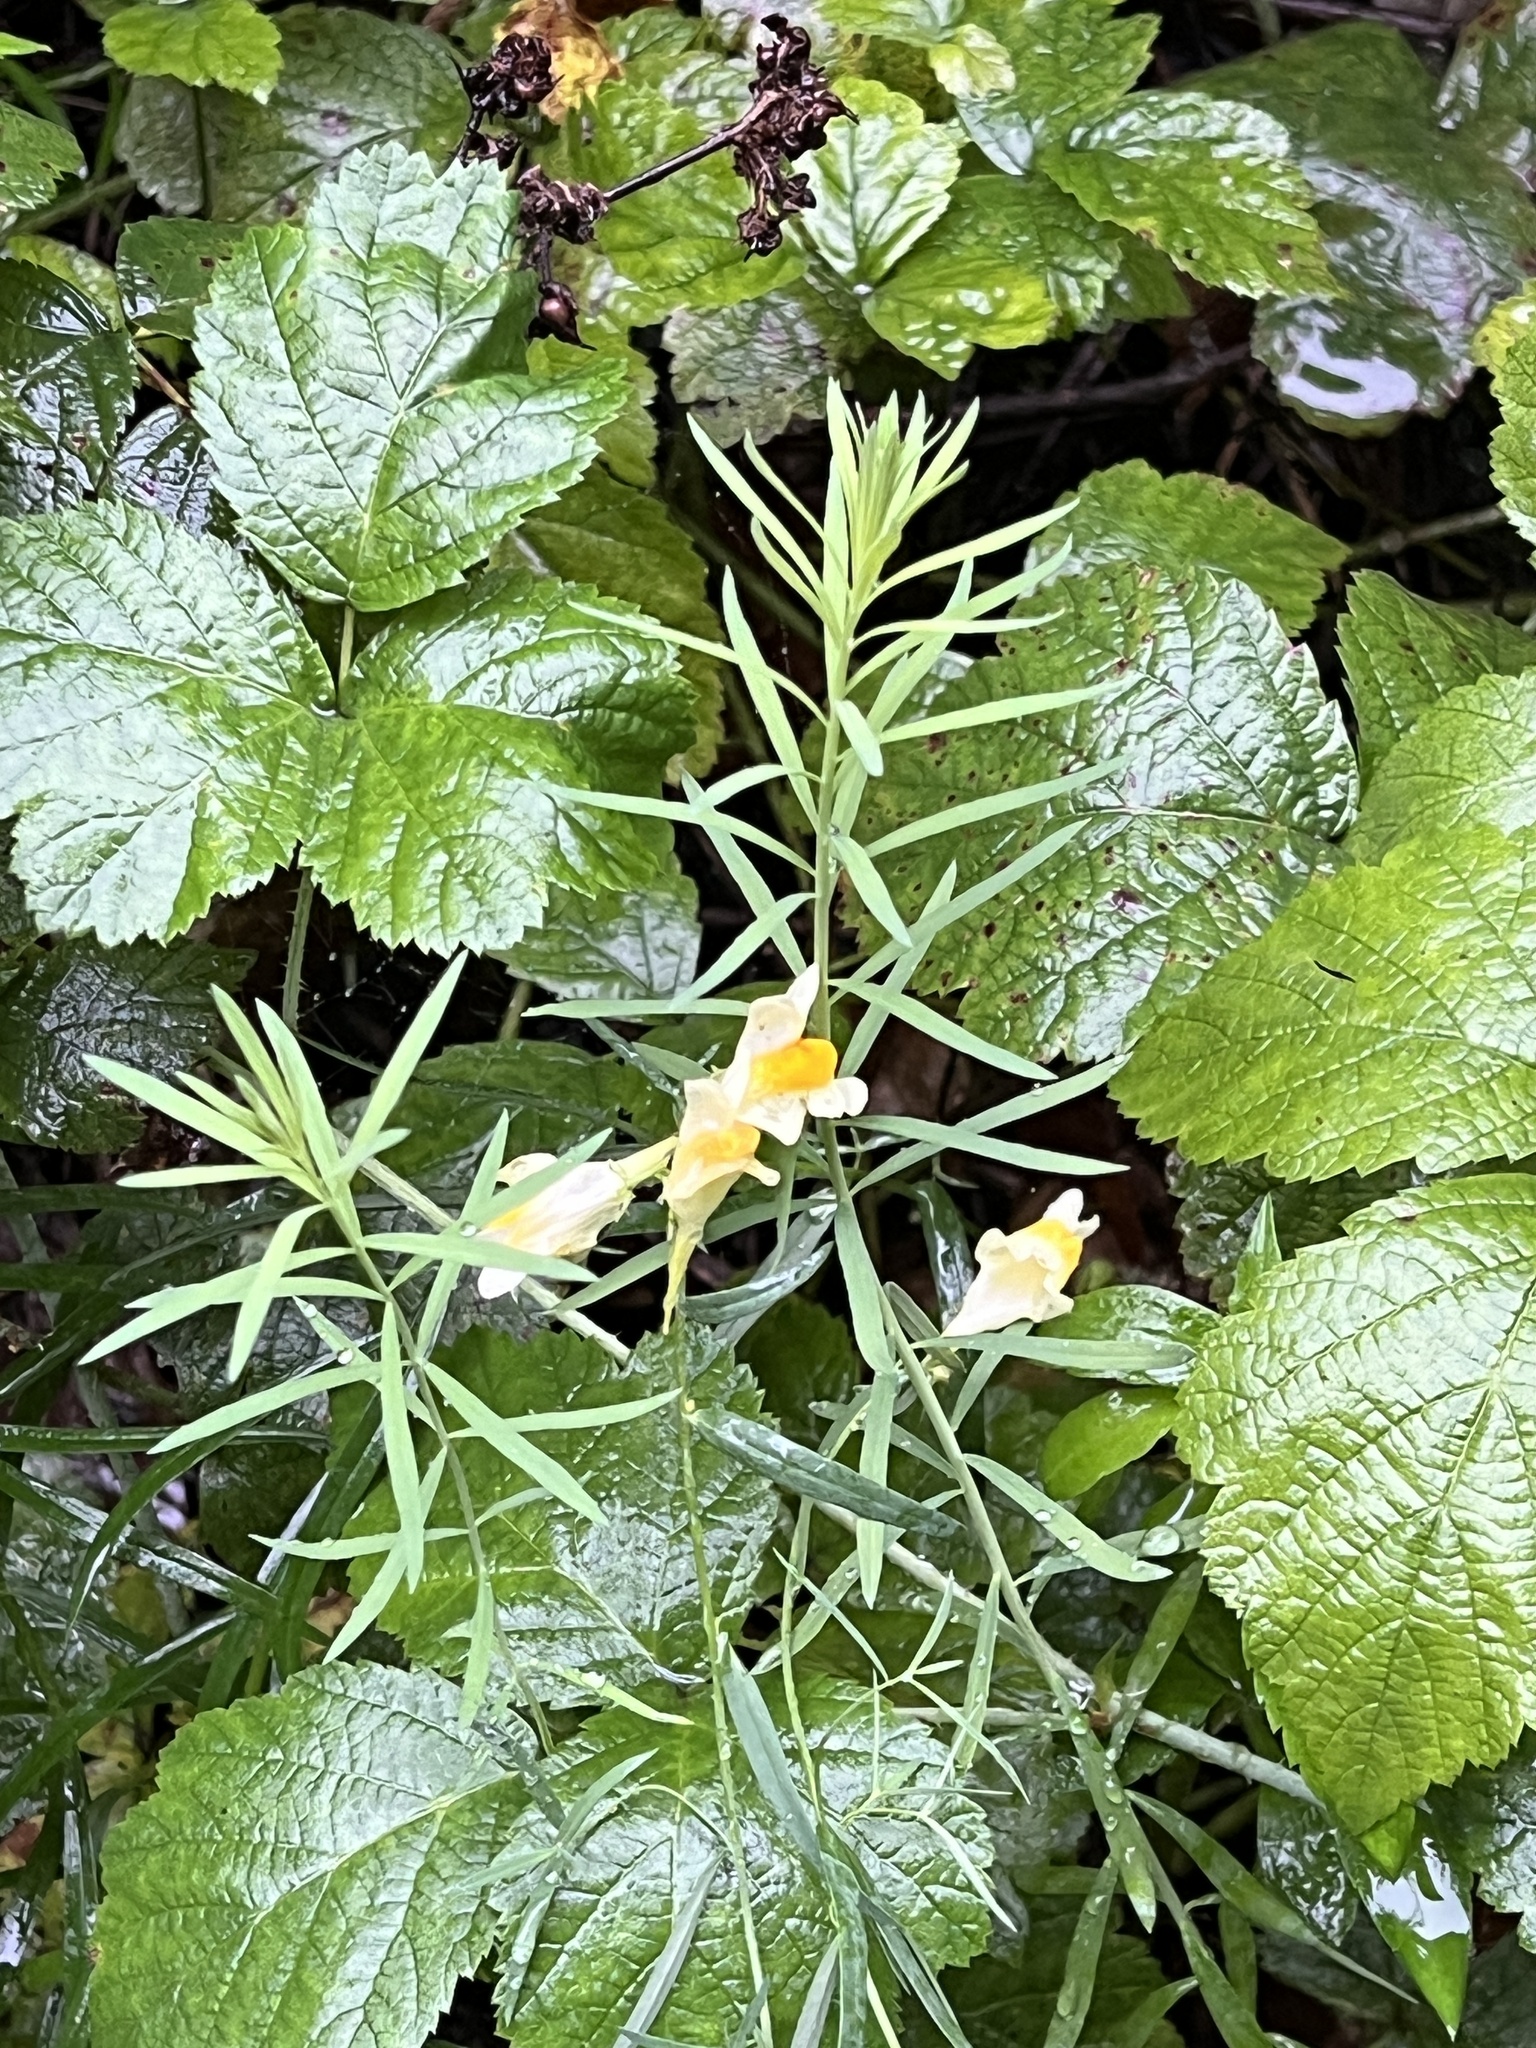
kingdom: Plantae
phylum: Tracheophyta
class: Magnoliopsida
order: Lamiales
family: Plantaginaceae
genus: Linaria
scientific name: Linaria vulgaris
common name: Butter and eggs
